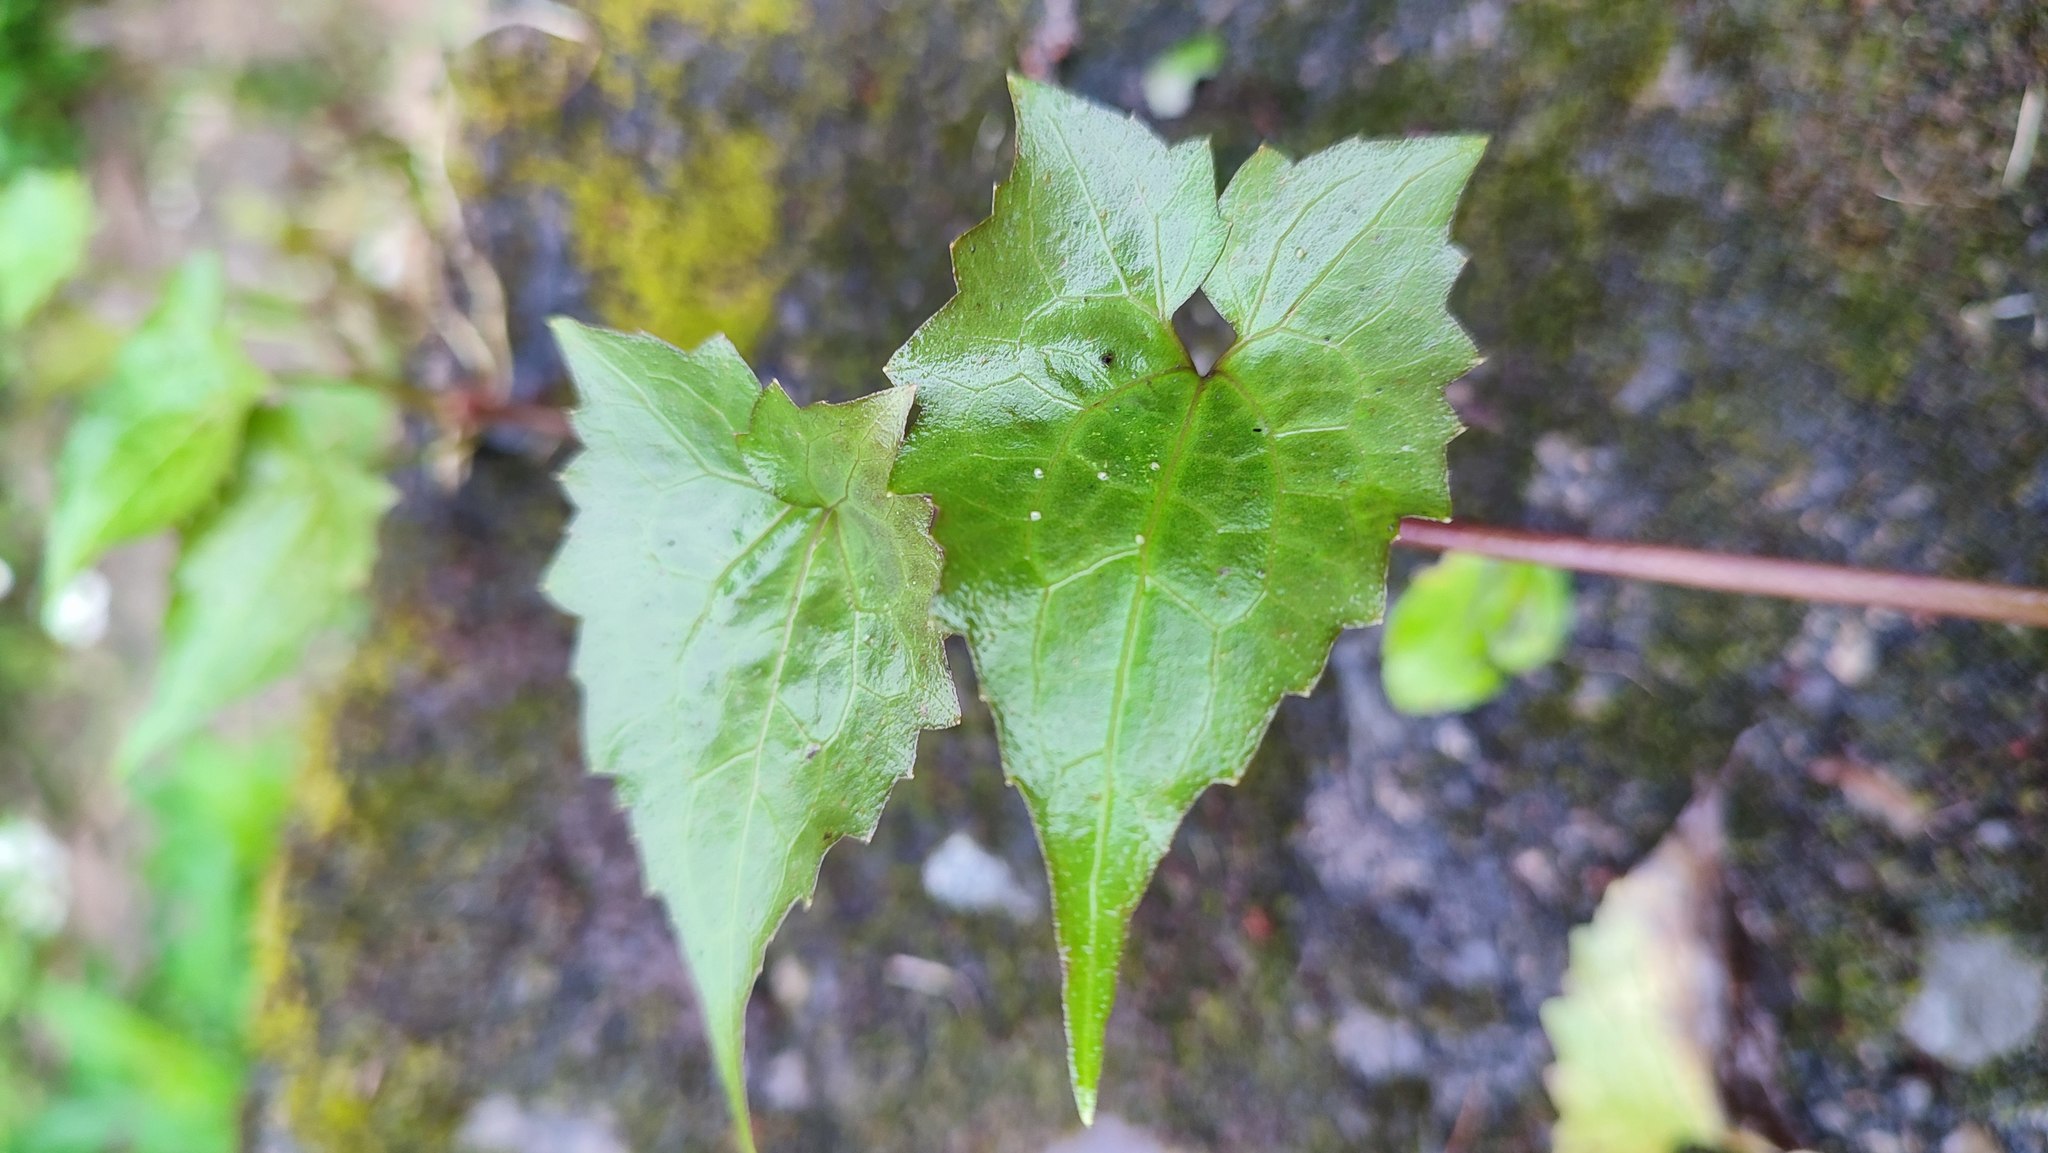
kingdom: Plantae
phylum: Tracheophyta
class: Magnoliopsida
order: Asterales
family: Asteraceae
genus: Mikania
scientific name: Mikania micrantha
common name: Mile-a-minute
